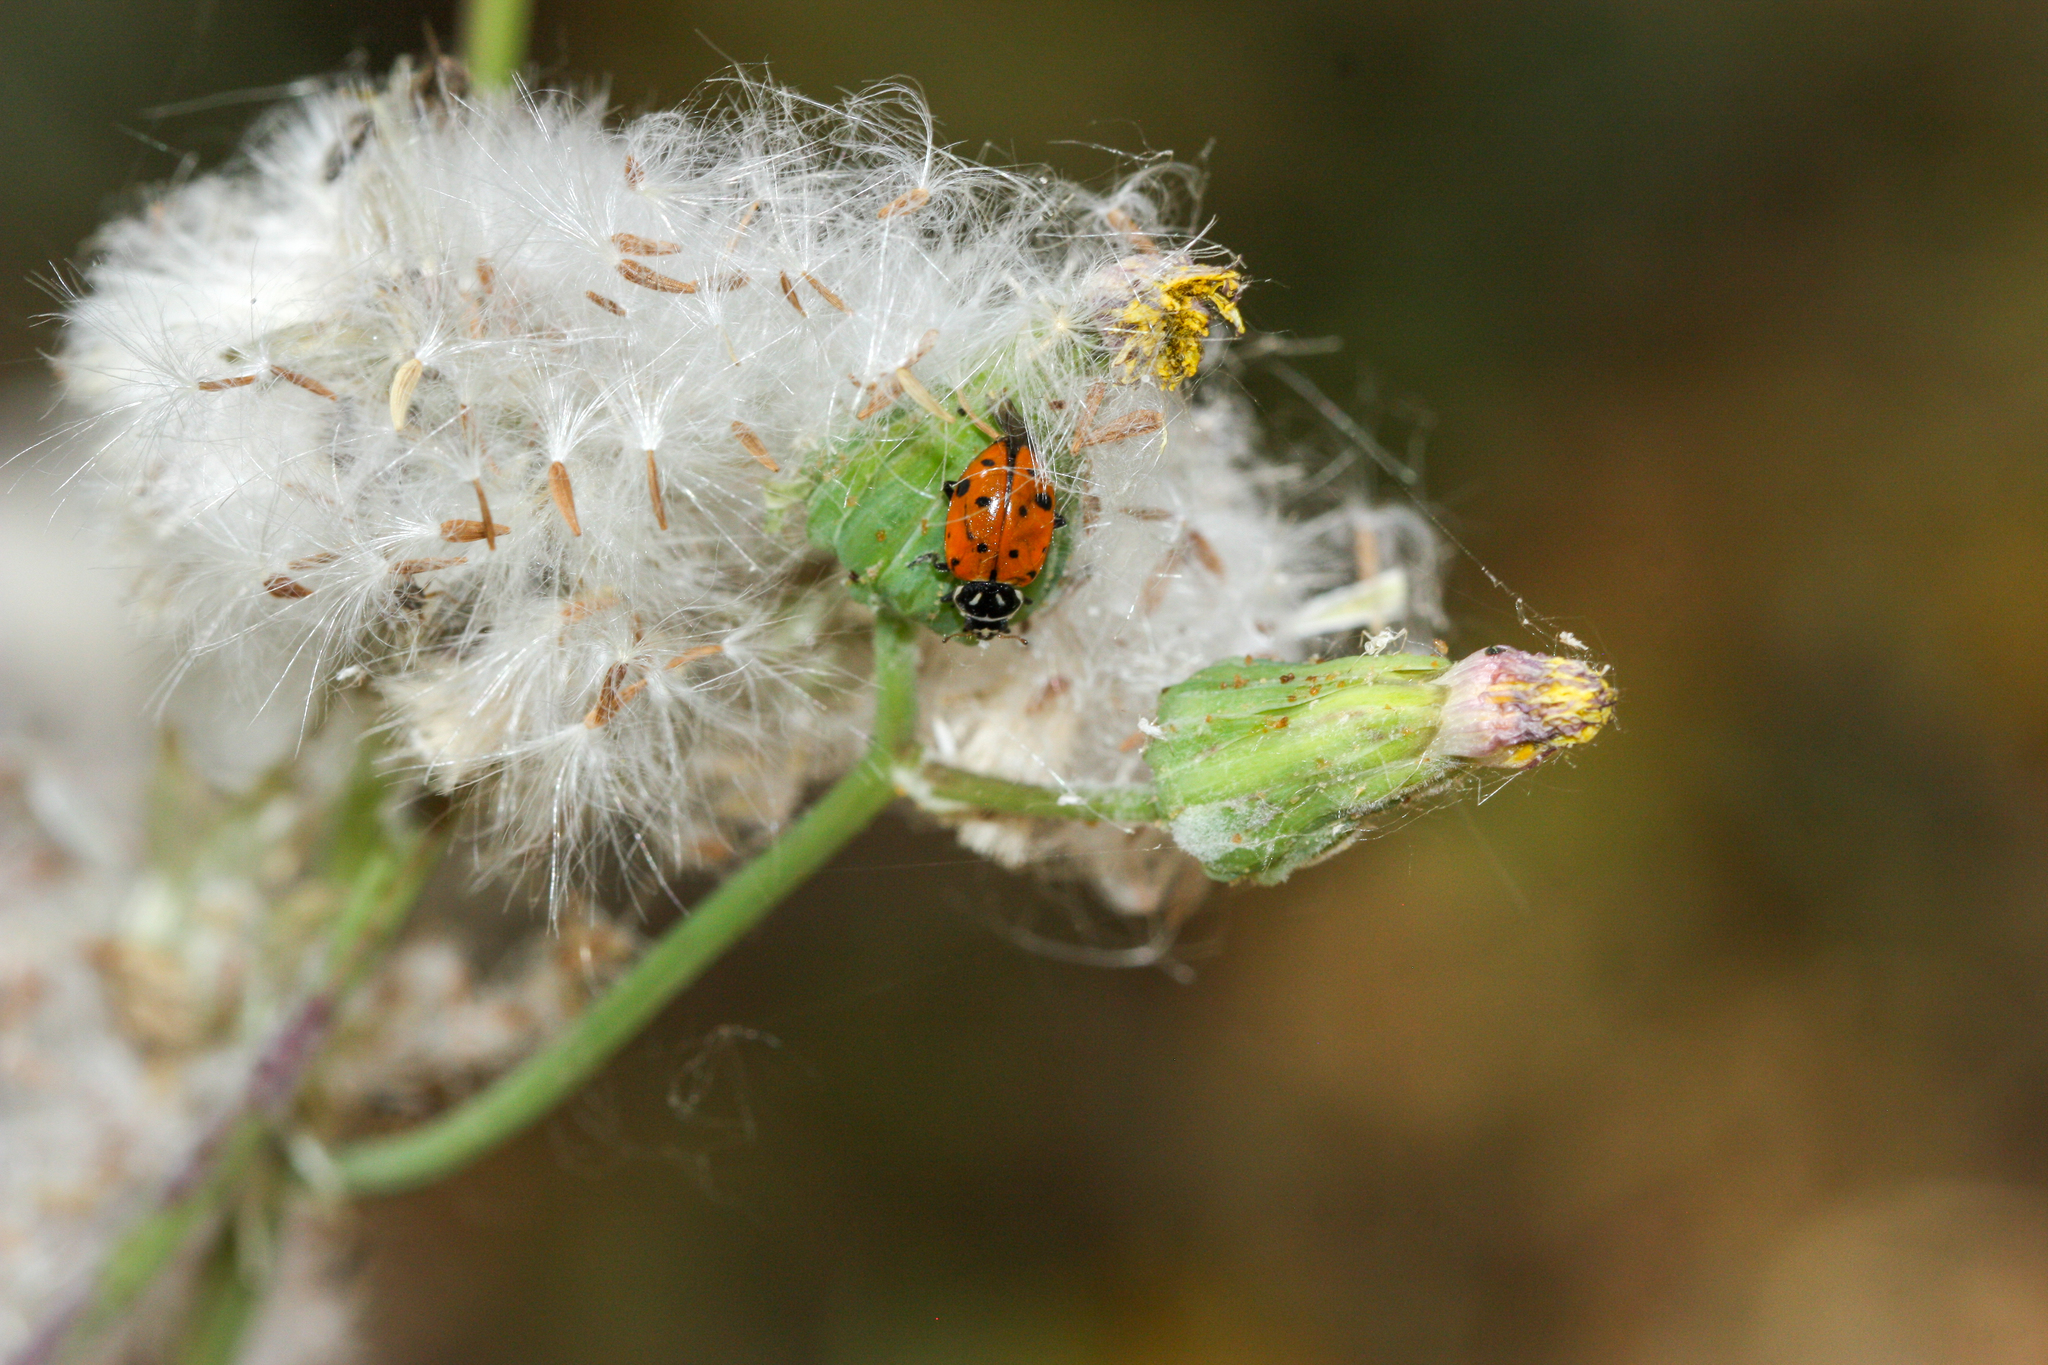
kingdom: Animalia
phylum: Arthropoda
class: Insecta
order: Coleoptera
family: Coccinellidae
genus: Hippodamia
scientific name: Hippodamia convergens
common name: Convergent lady beetle
